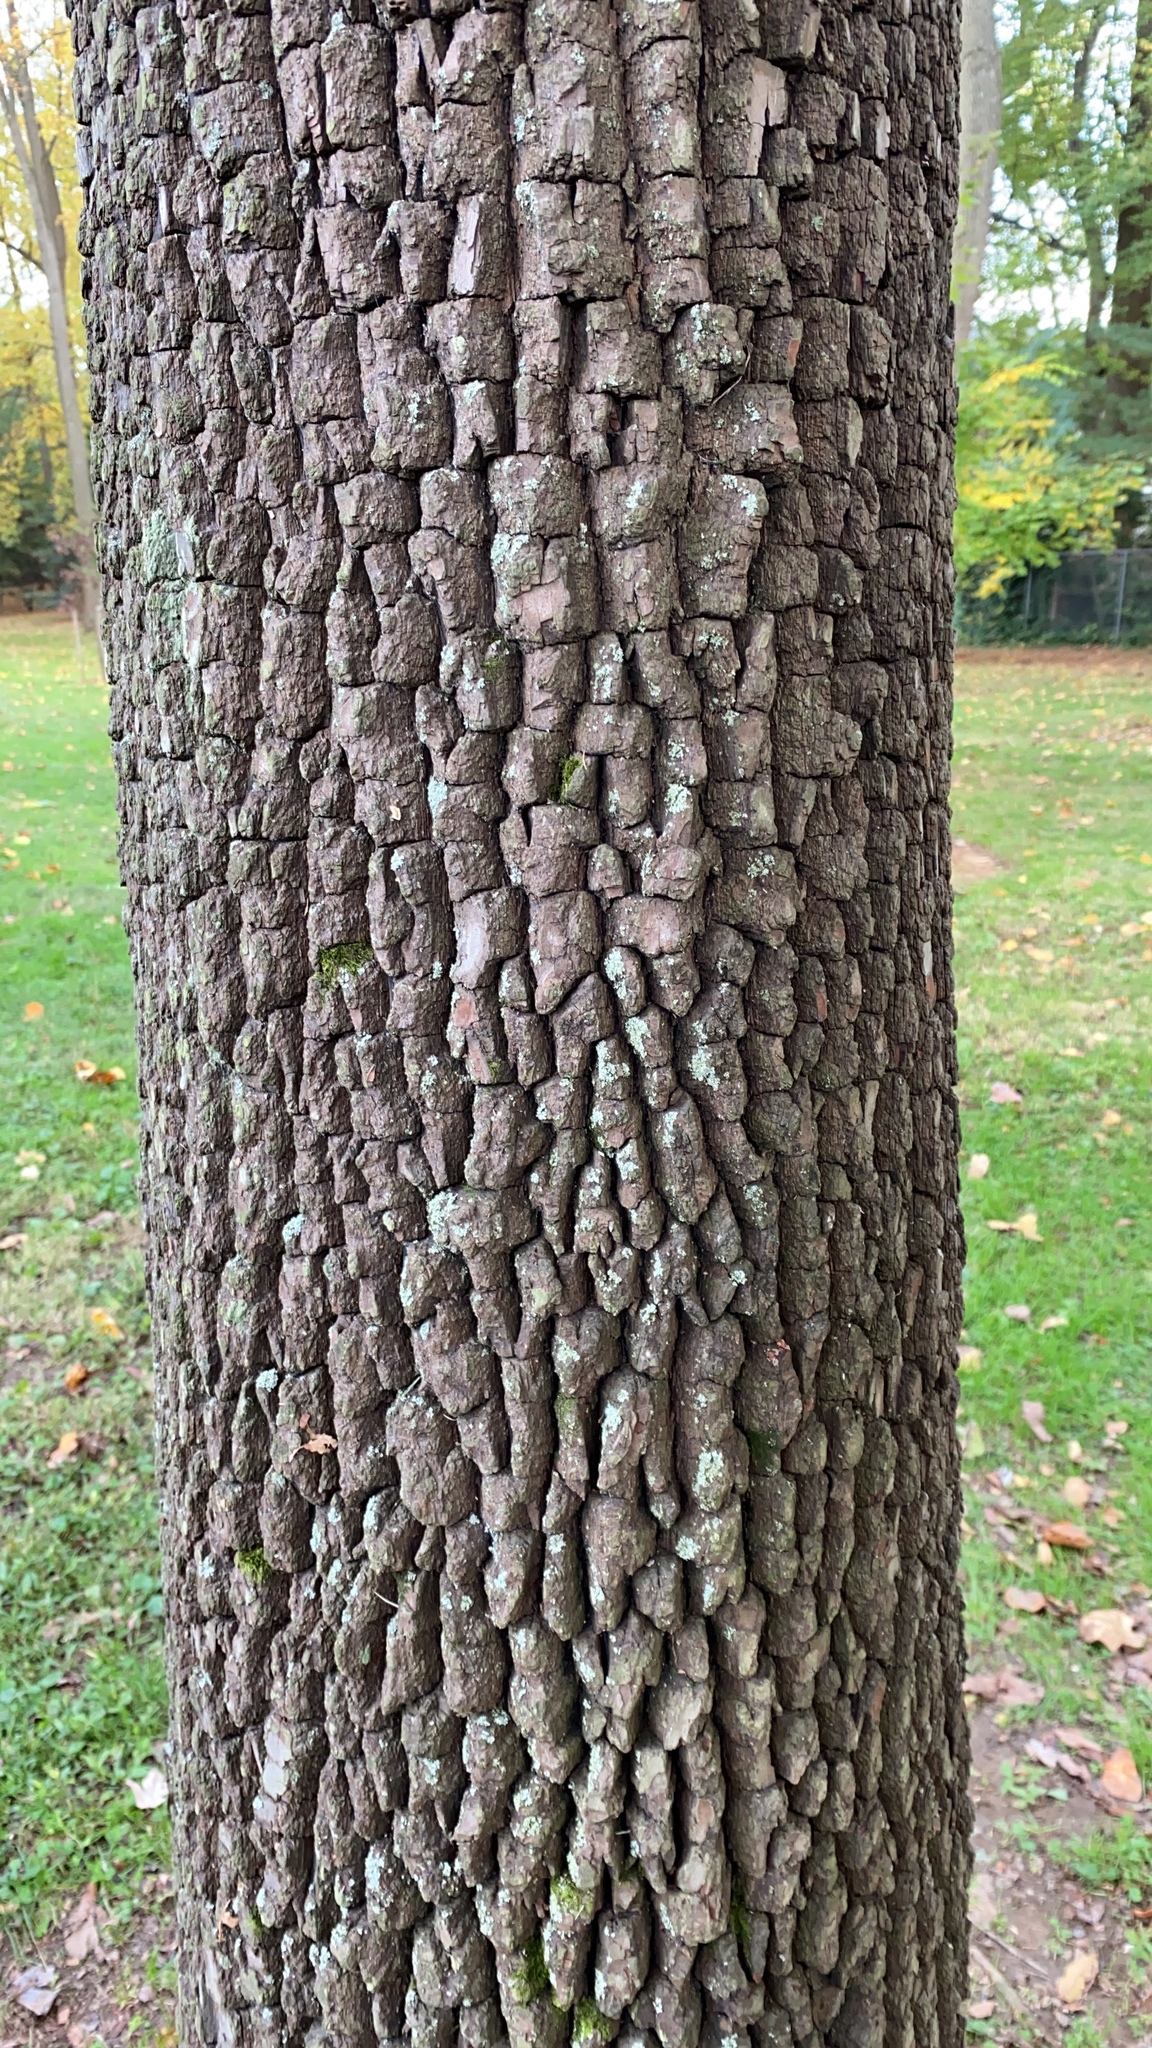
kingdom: Plantae
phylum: Tracheophyta
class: Magnoliopsida
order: Ericales
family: Ebenaceae
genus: Diospyros
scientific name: Diospyros virginiana
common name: Persimmon
